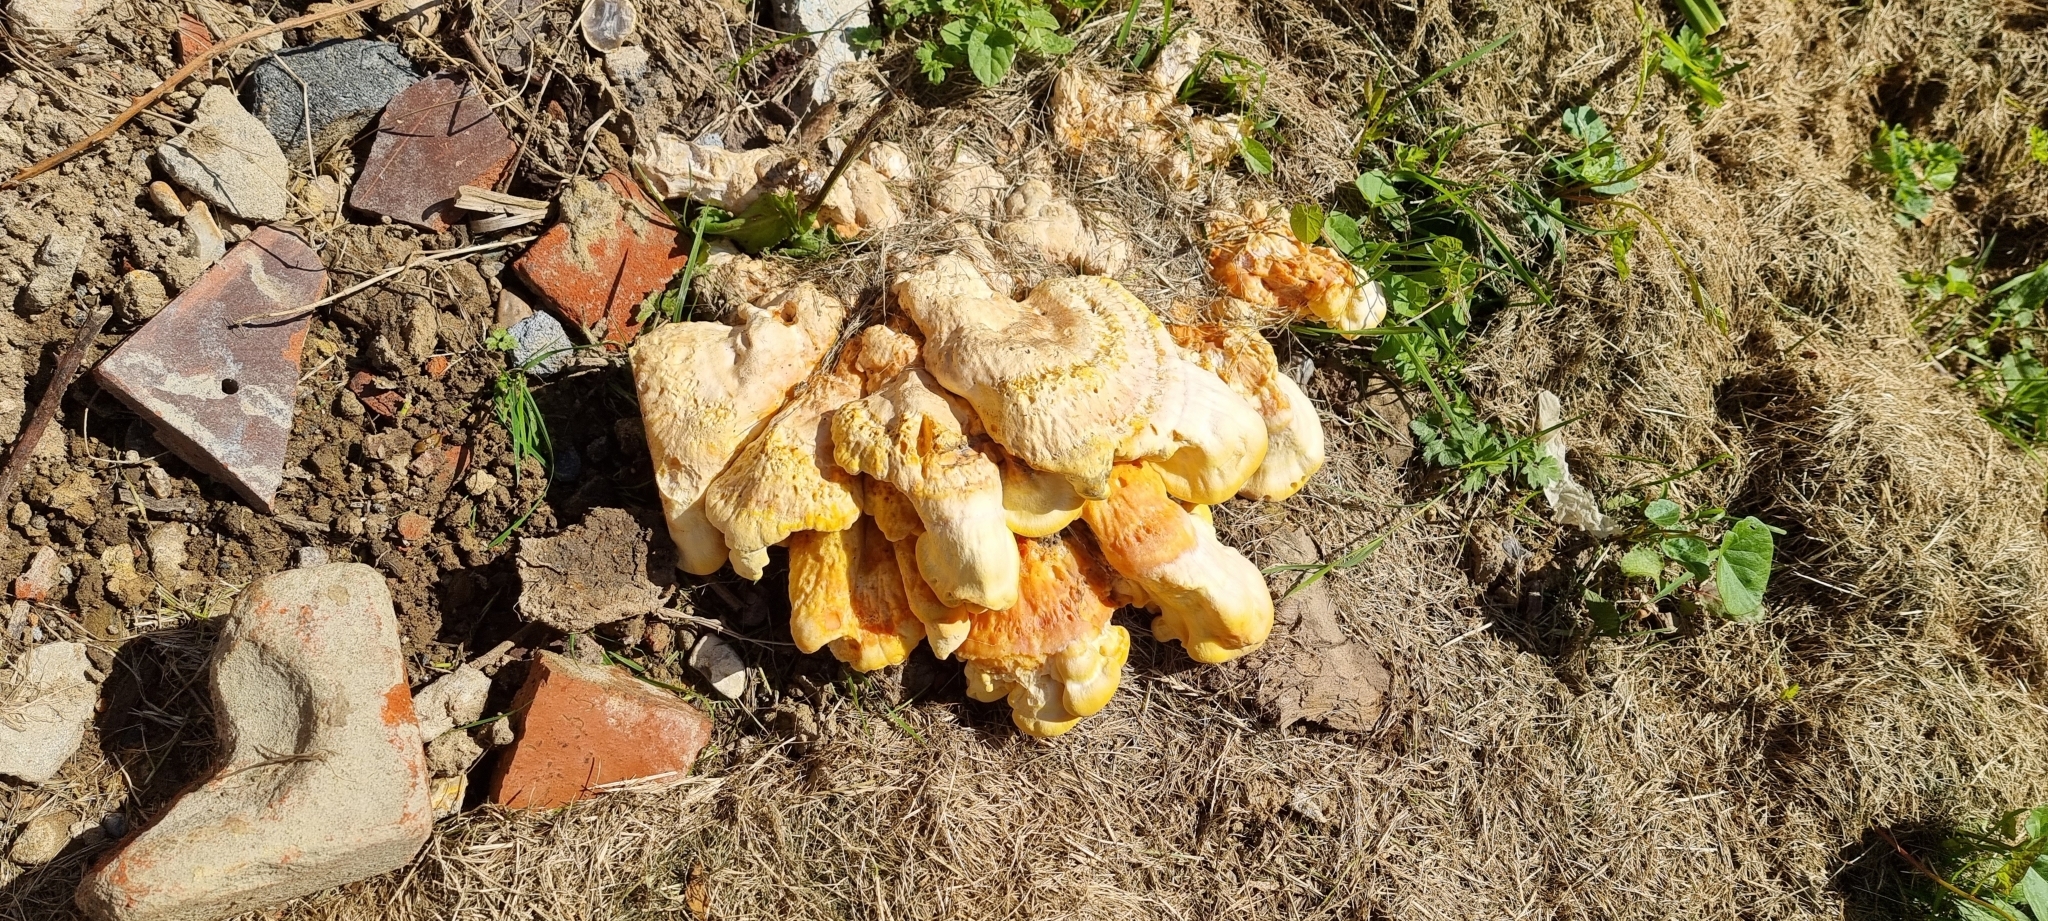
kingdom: Fungi
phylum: Basidiomycota
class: Agaricomycetes
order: Polyporales
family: Laetiporaceae
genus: Laetiporus
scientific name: Laetiporus sulphureus
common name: Chicken of the woods
